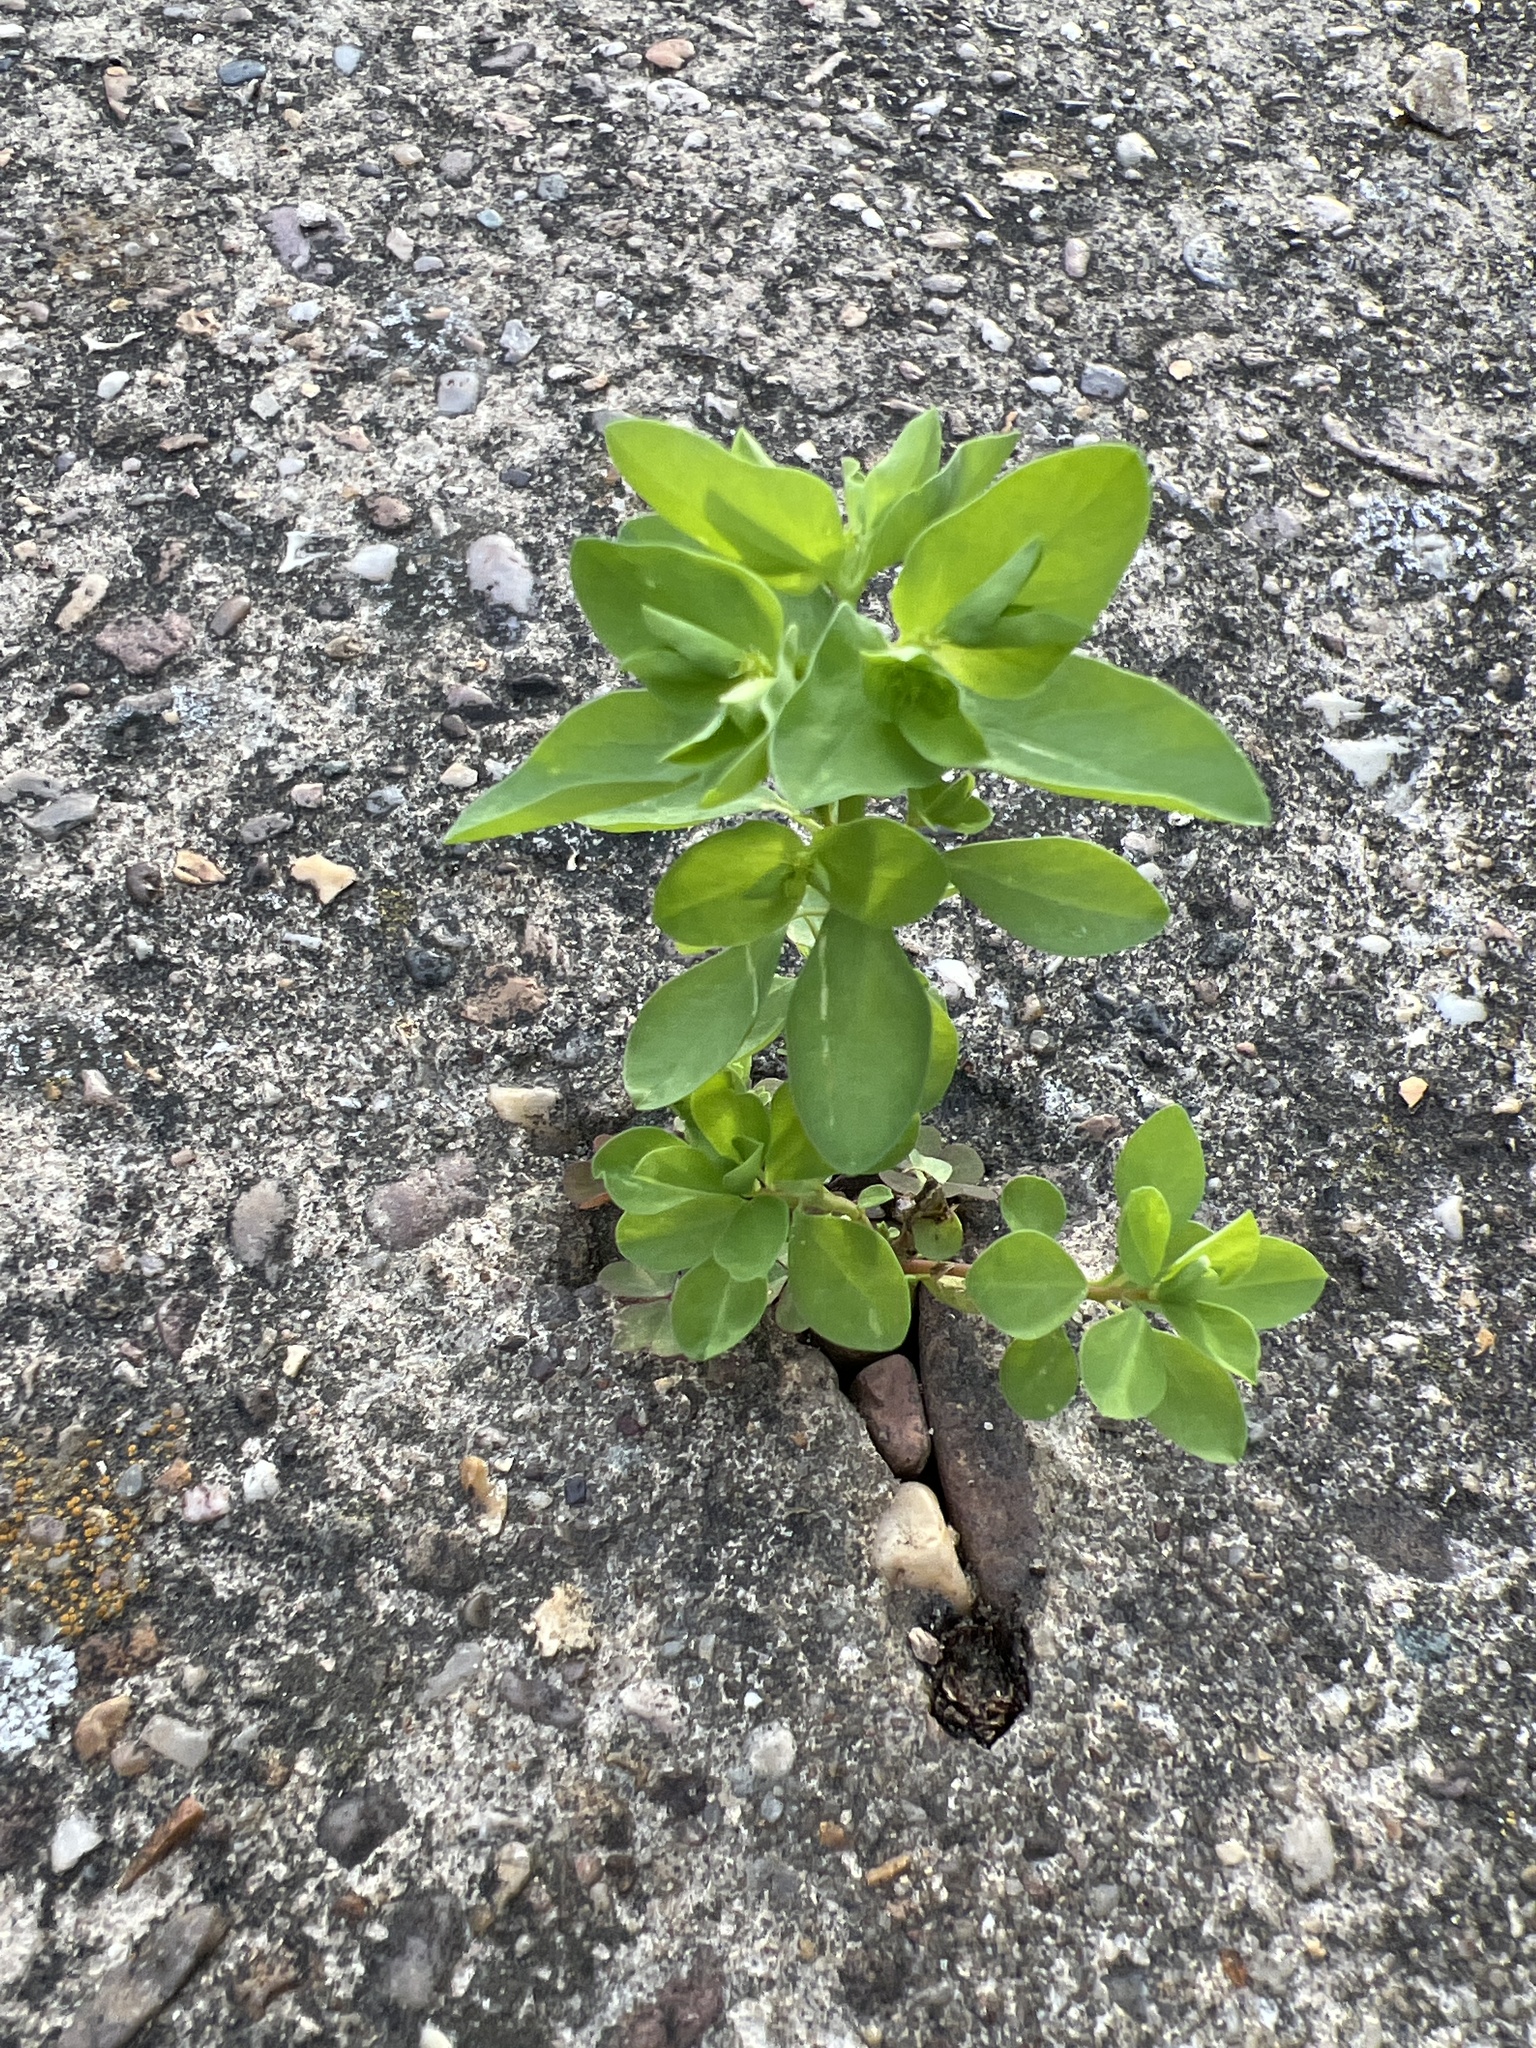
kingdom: Plantae
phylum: Tracheophyta
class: Magnoliopsida
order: Malpighiales
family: Euphorbiaceae
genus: Euphorbia
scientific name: Euphorbia peplus
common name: Petty spurge
